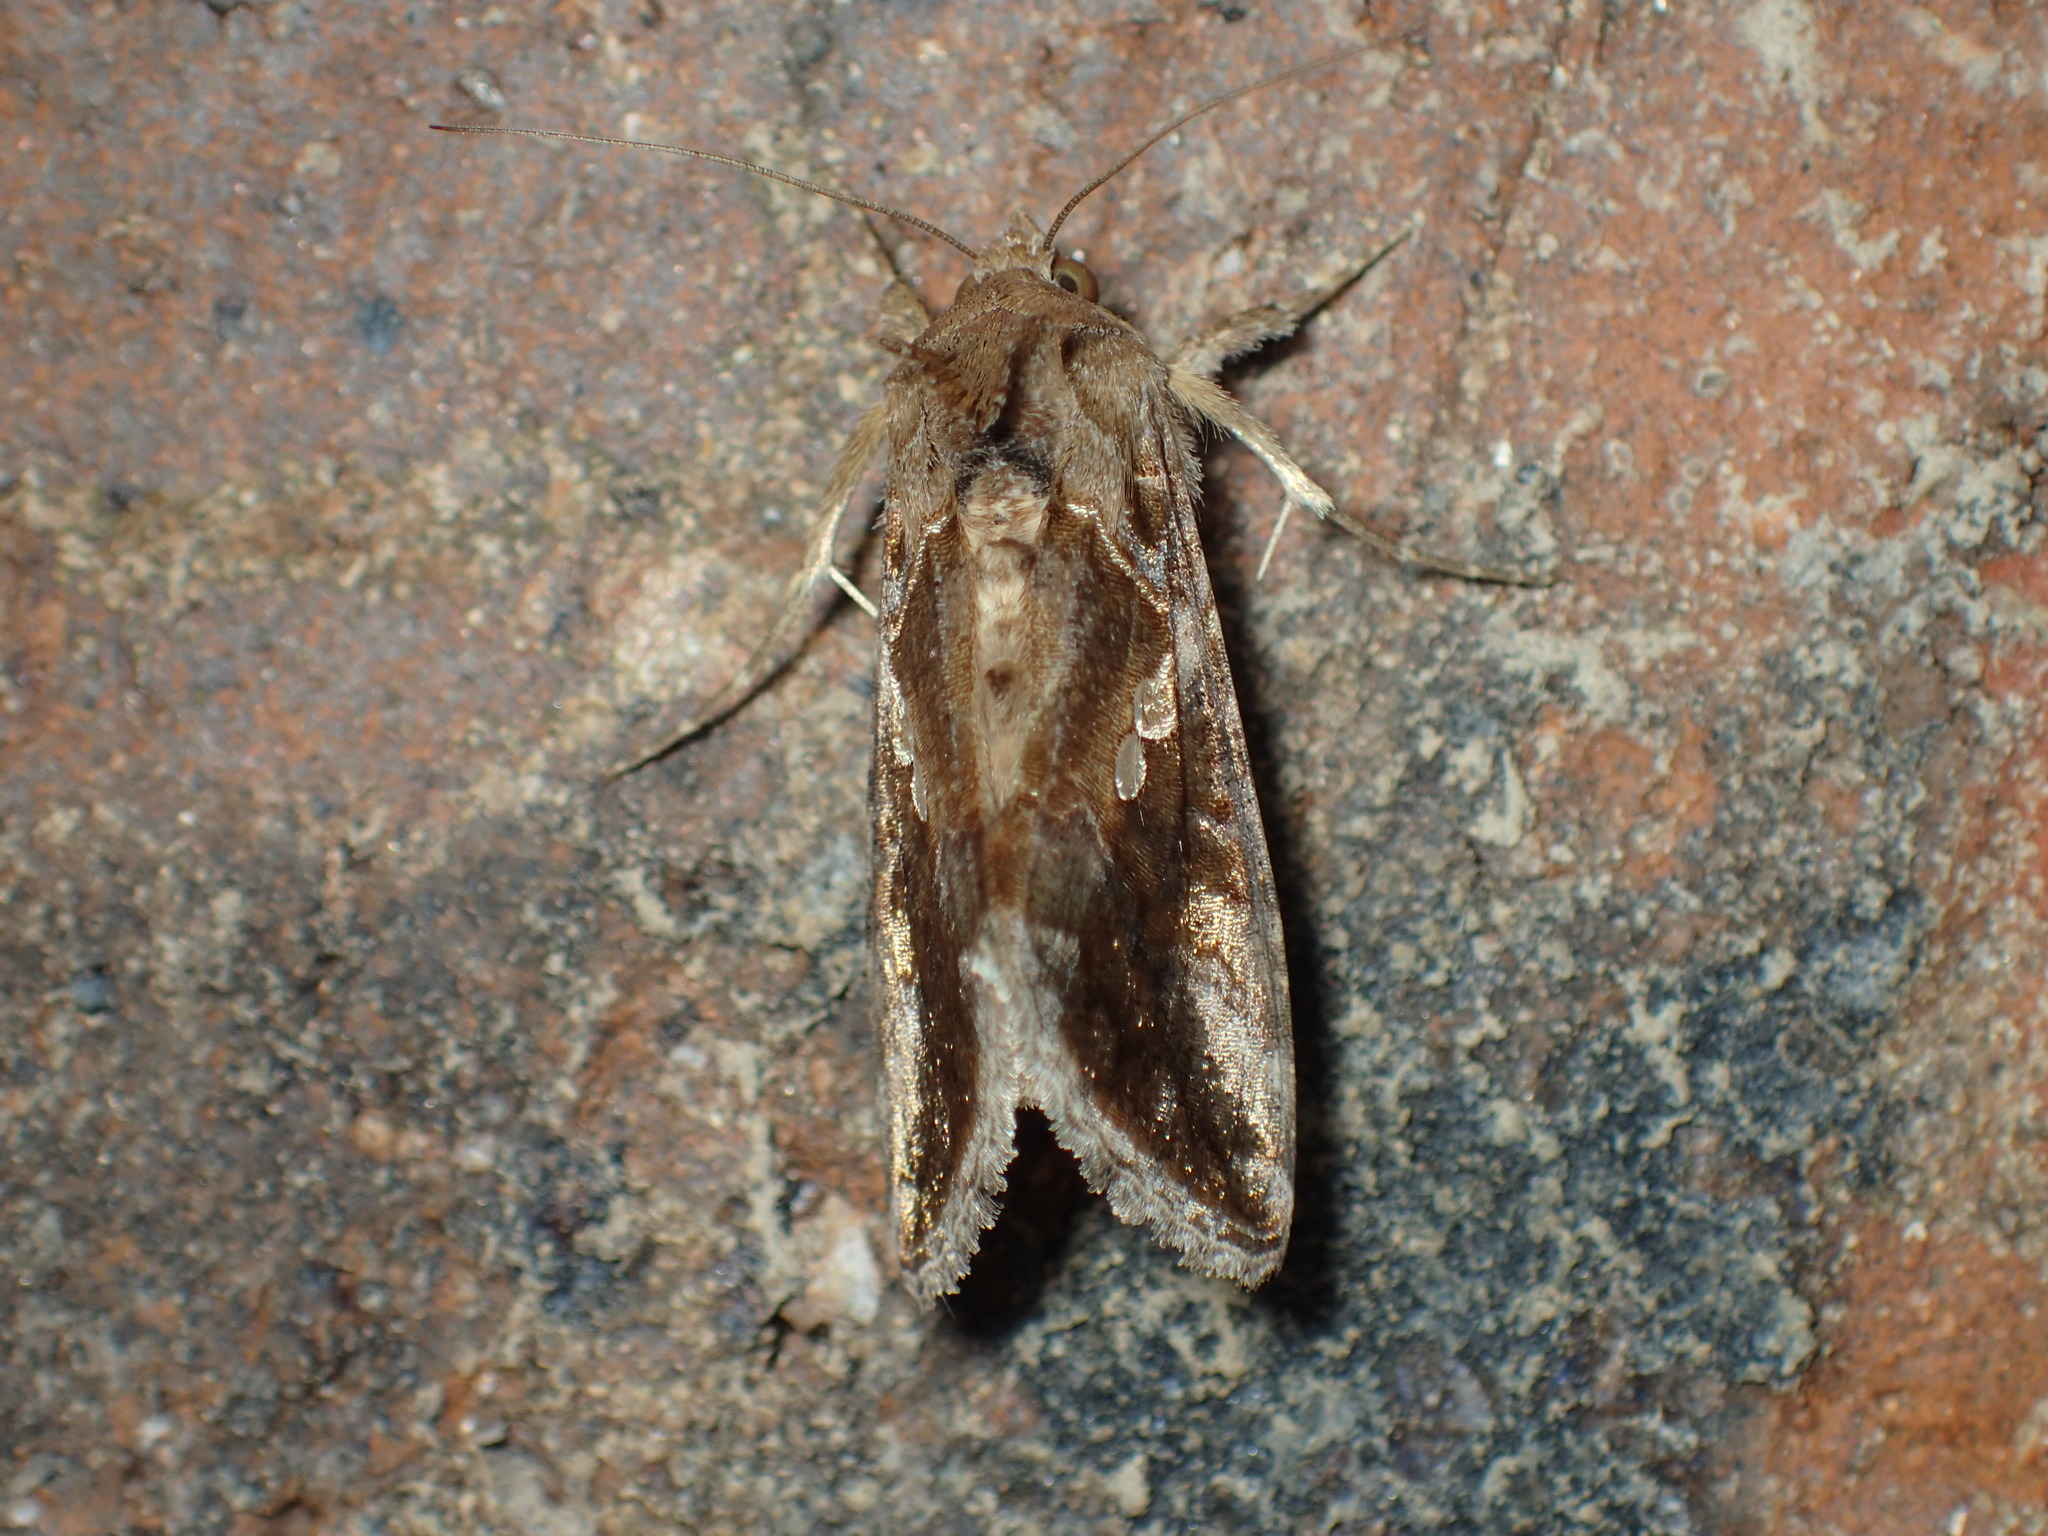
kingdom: Animalia
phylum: Arthropoda
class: Insecta
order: Lepidoptera
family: Noctuidae
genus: Chrysodeixis
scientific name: Chrysodeixis includens
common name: Cutworm moth
